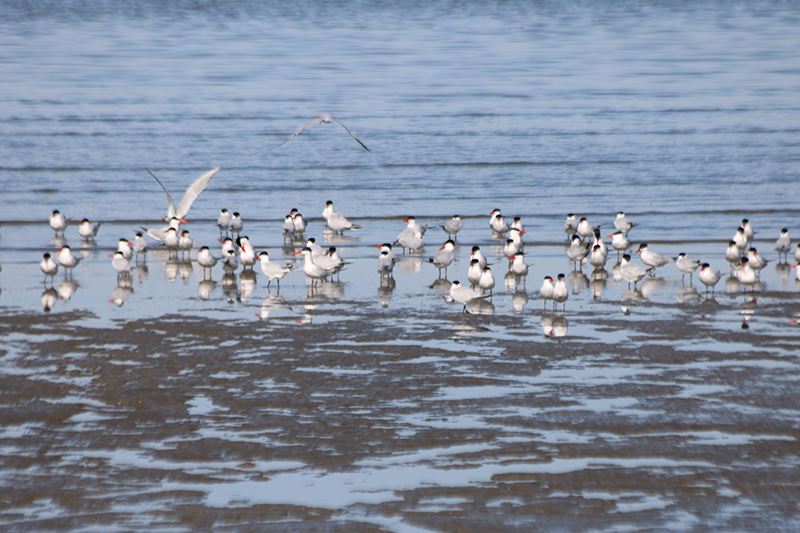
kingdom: Animalia
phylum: Chordata
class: Aves
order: Charadriiformes
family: Laridae
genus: Hydroprogne
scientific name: Hydroprogne caspia
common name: Caspian tern
